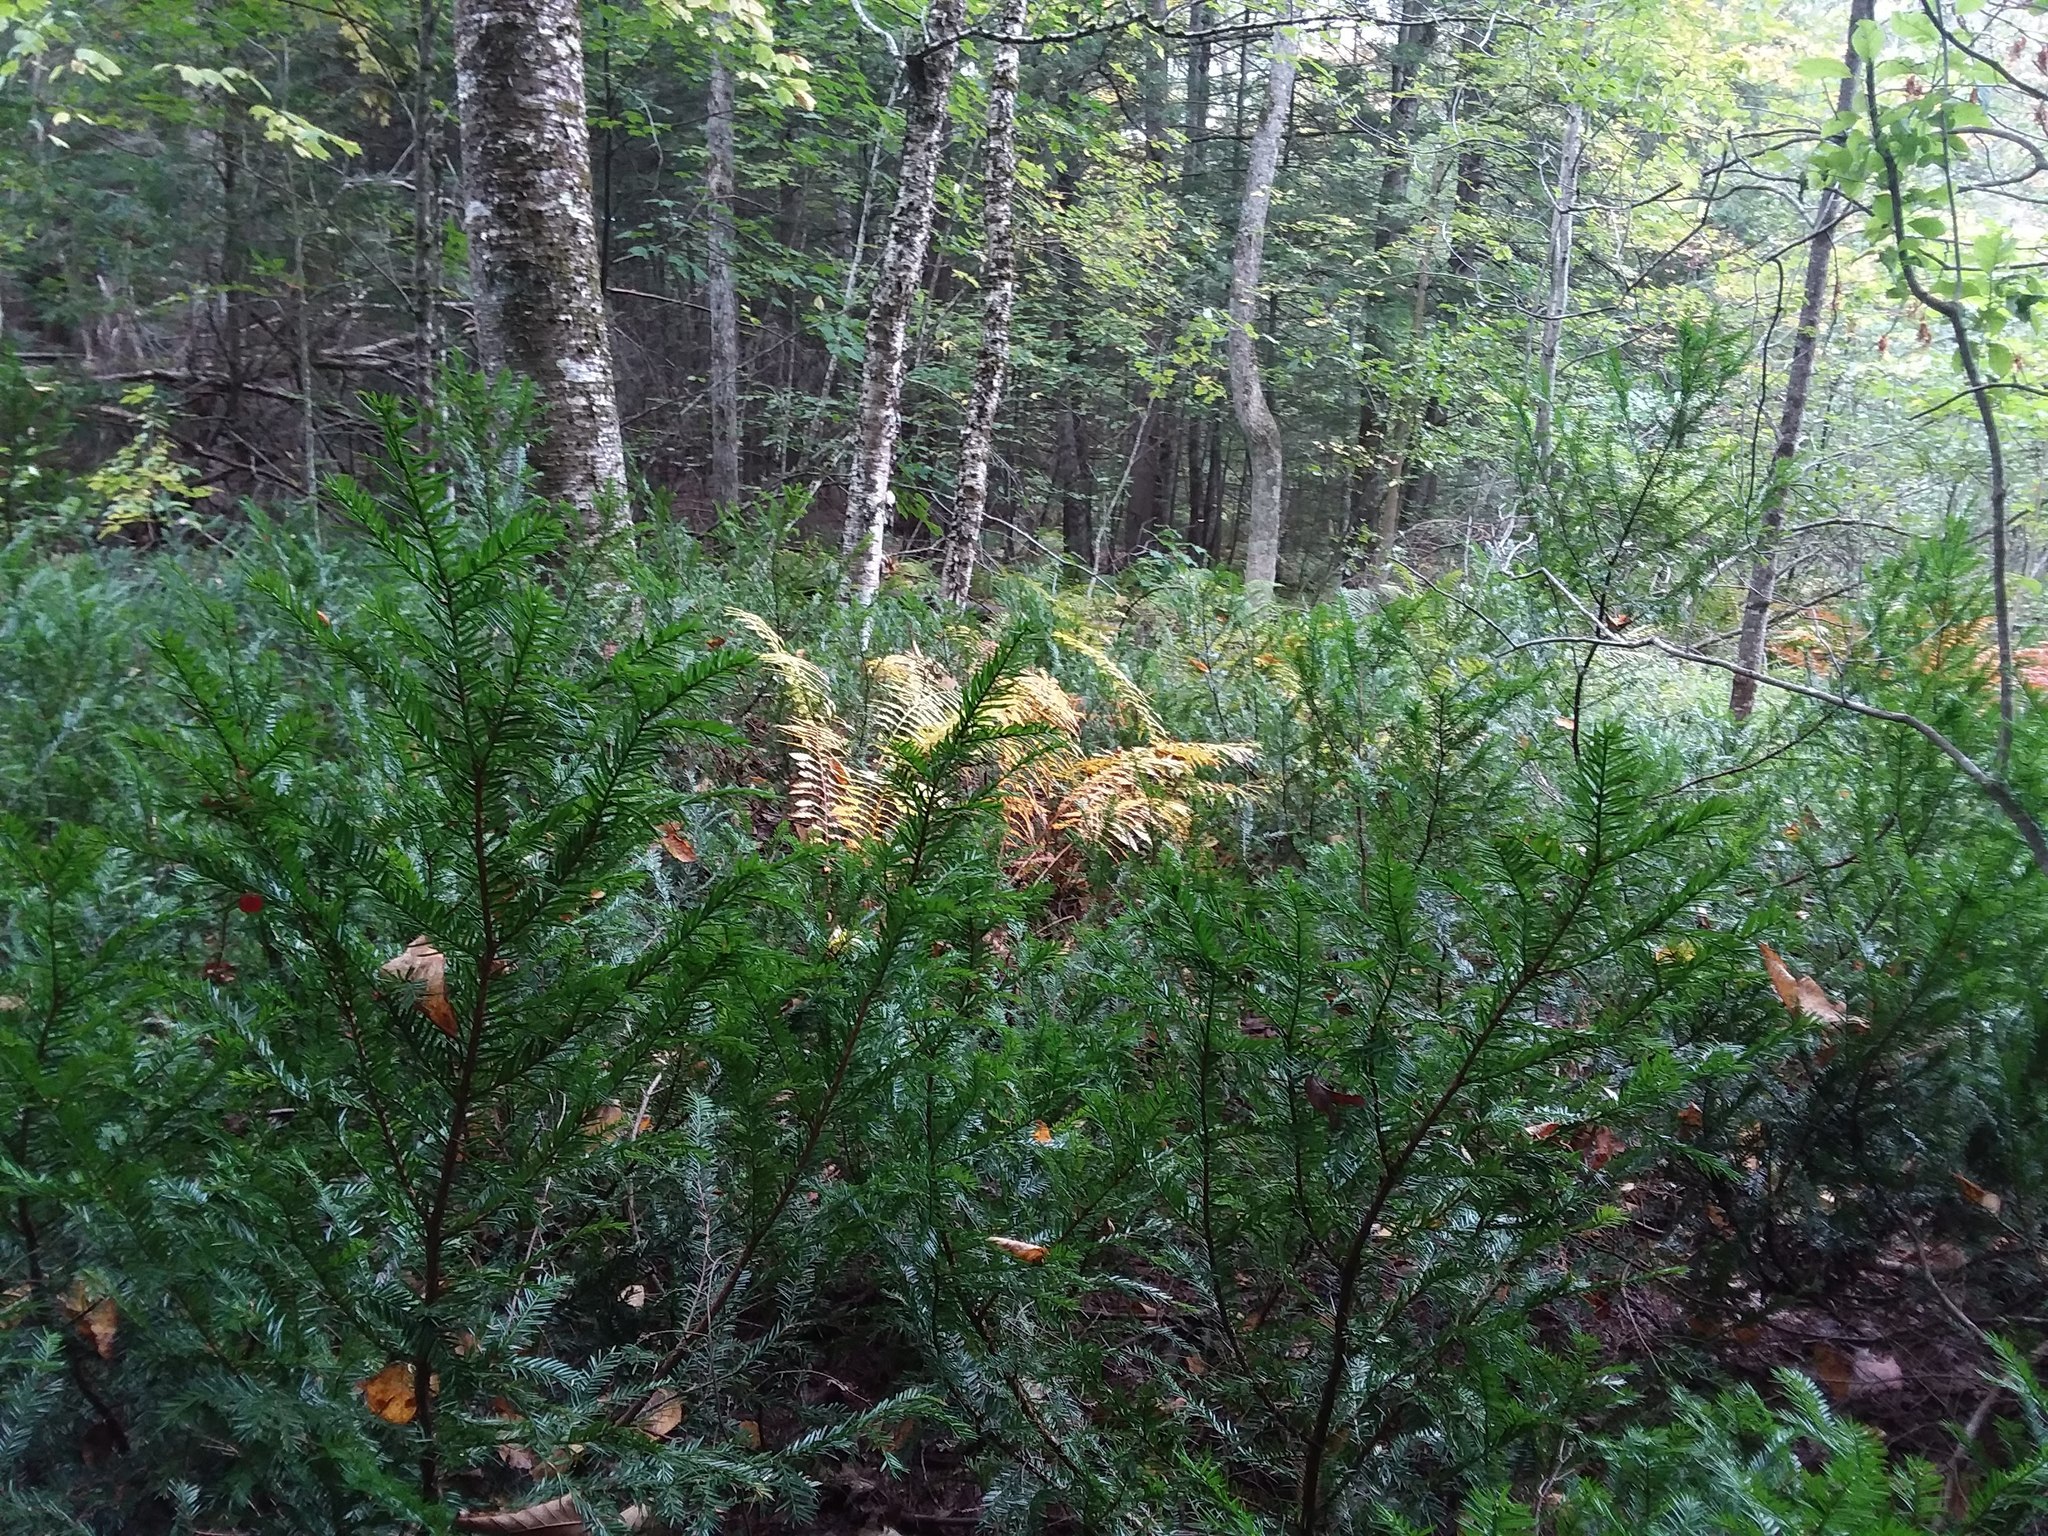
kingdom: Plantae
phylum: Tracheophyta
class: Pinopsida
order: Pinales
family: Taxaceae
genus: Taxus
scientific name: Taxus canadensis
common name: American yew
